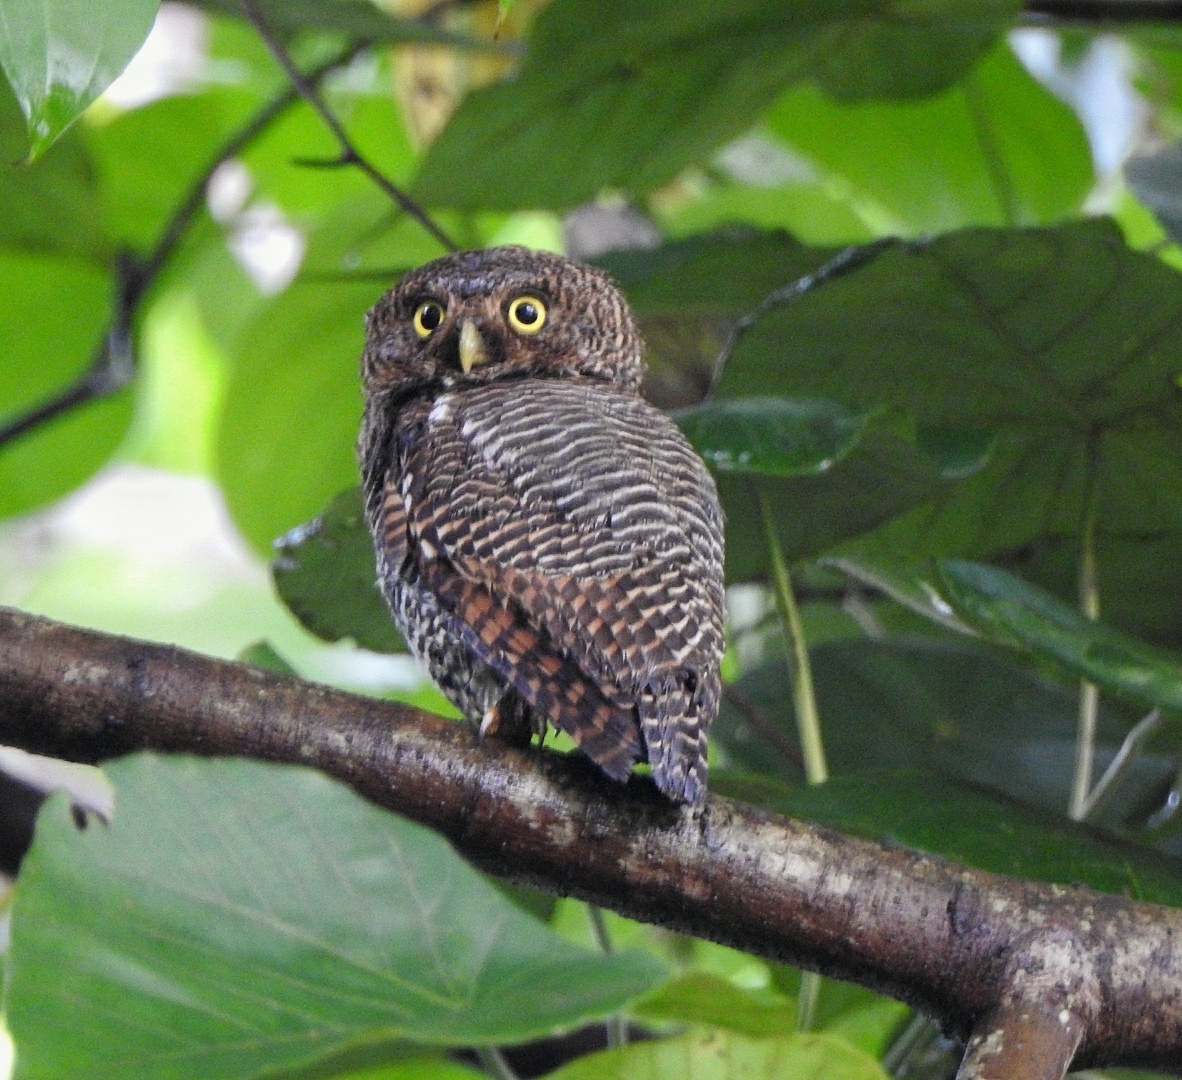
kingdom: Animalia
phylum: Chordata
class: Aves
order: Strigiformes
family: Strigidae
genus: Glaucidium
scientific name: Glaucidium radiatum
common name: Jungle owlet
